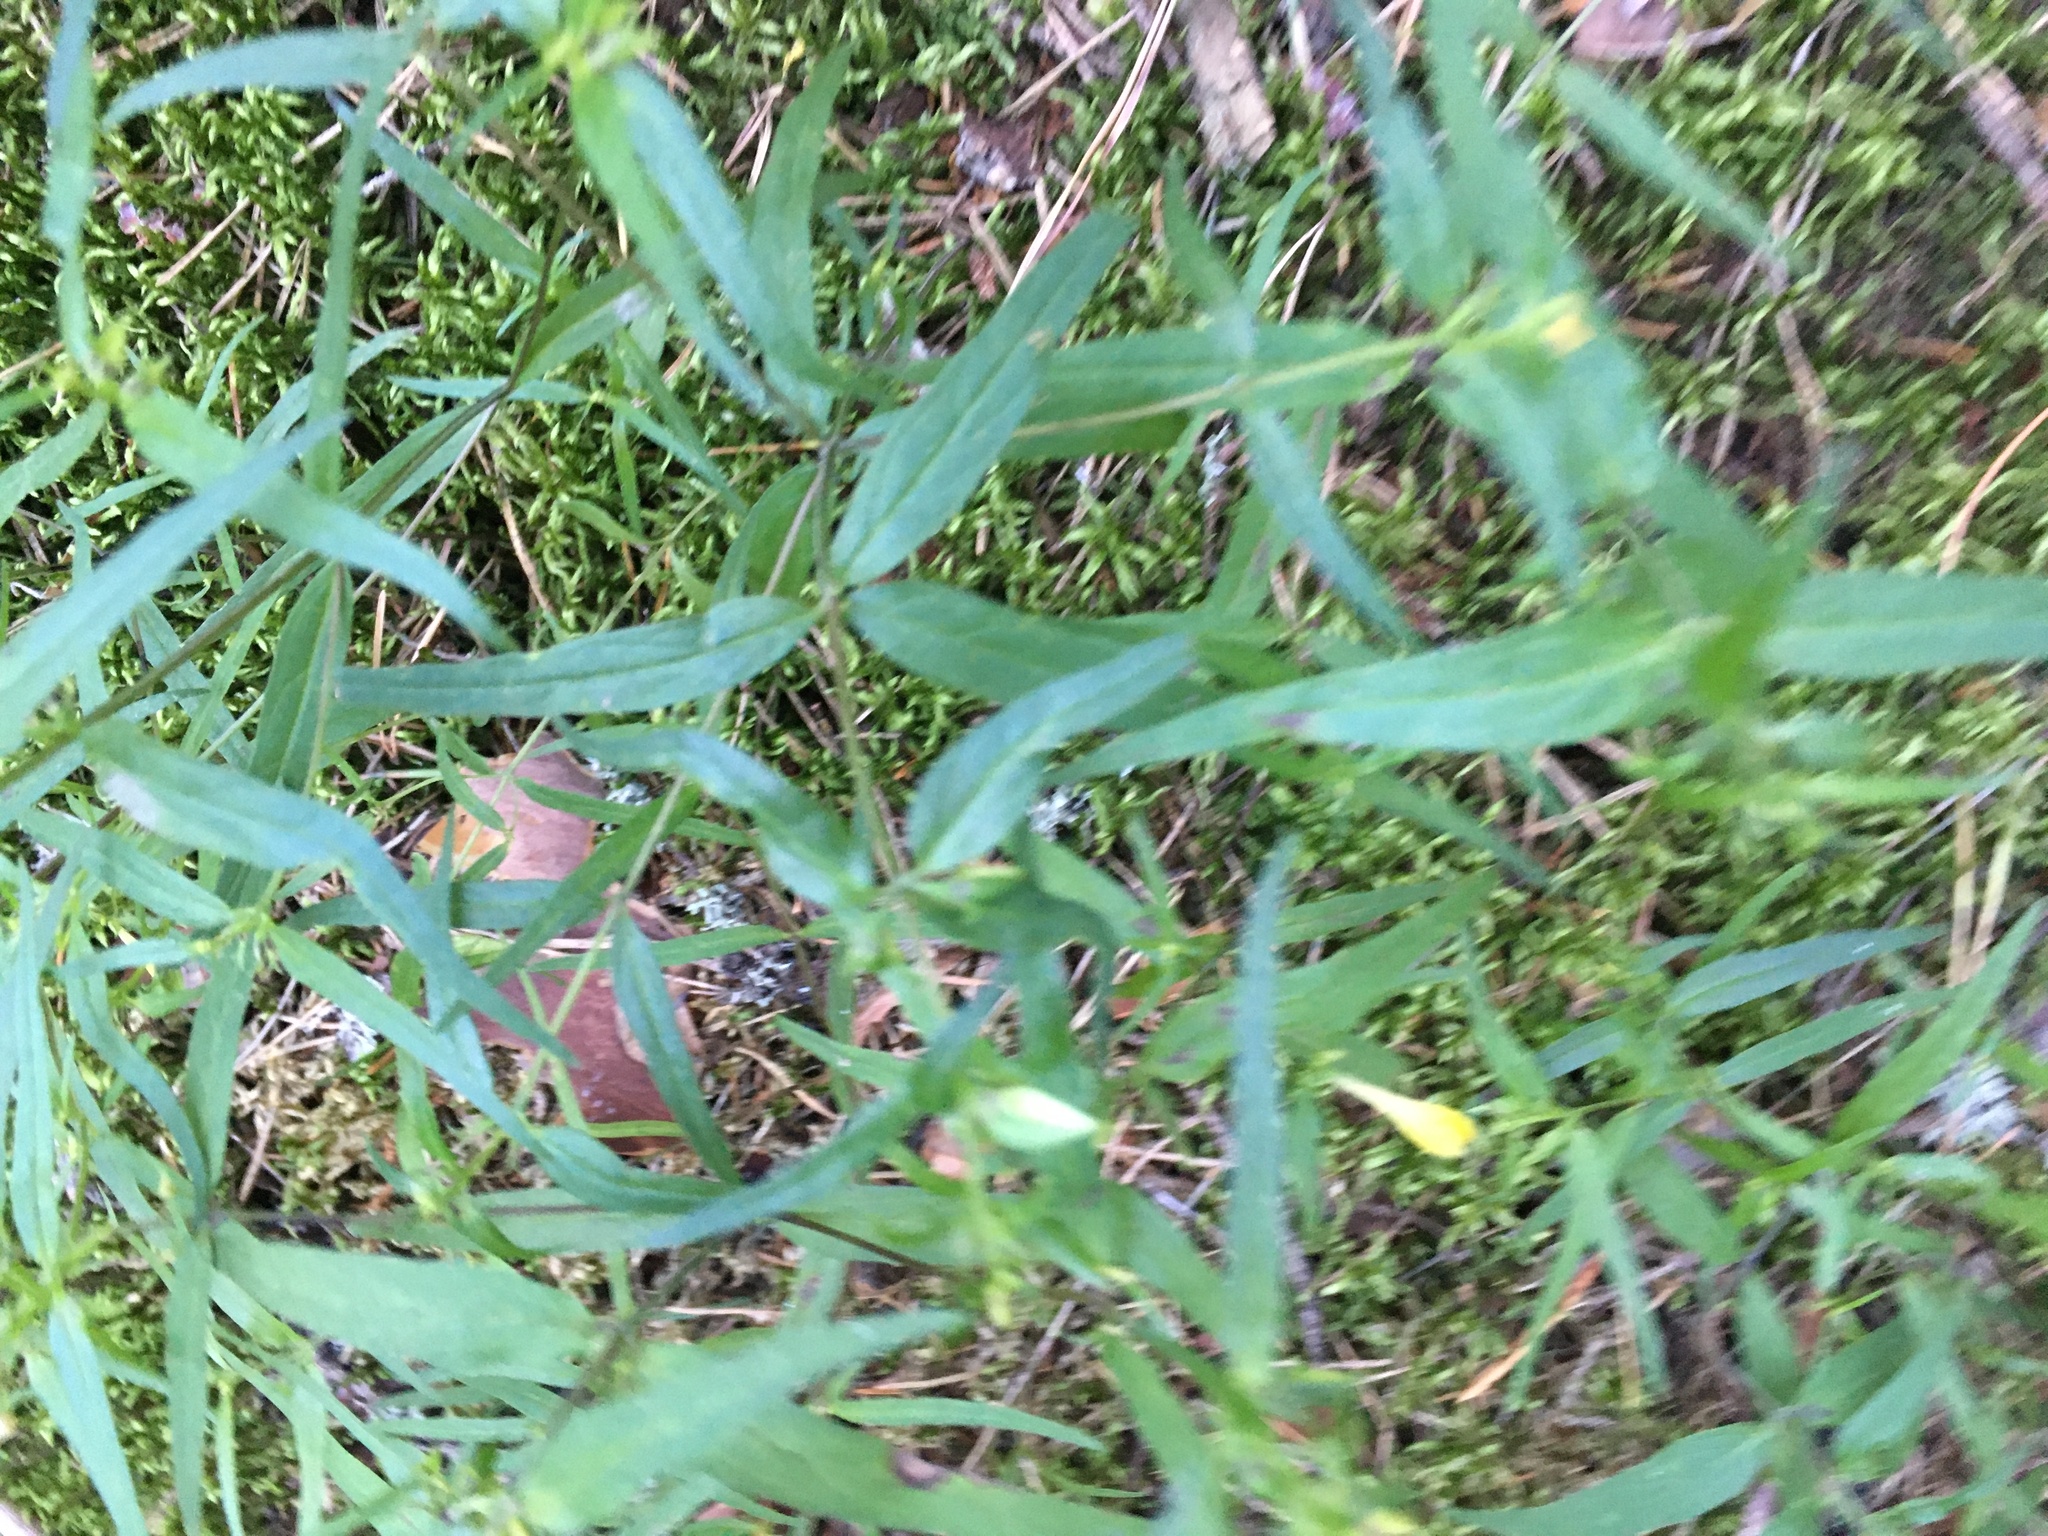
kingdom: Plantae
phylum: Tracheophyta
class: Magnoliopsida
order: Lamiales
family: Orobanchaceae
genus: Melampyrum
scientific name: Melampyrum pratense
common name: Common cow-wheat
